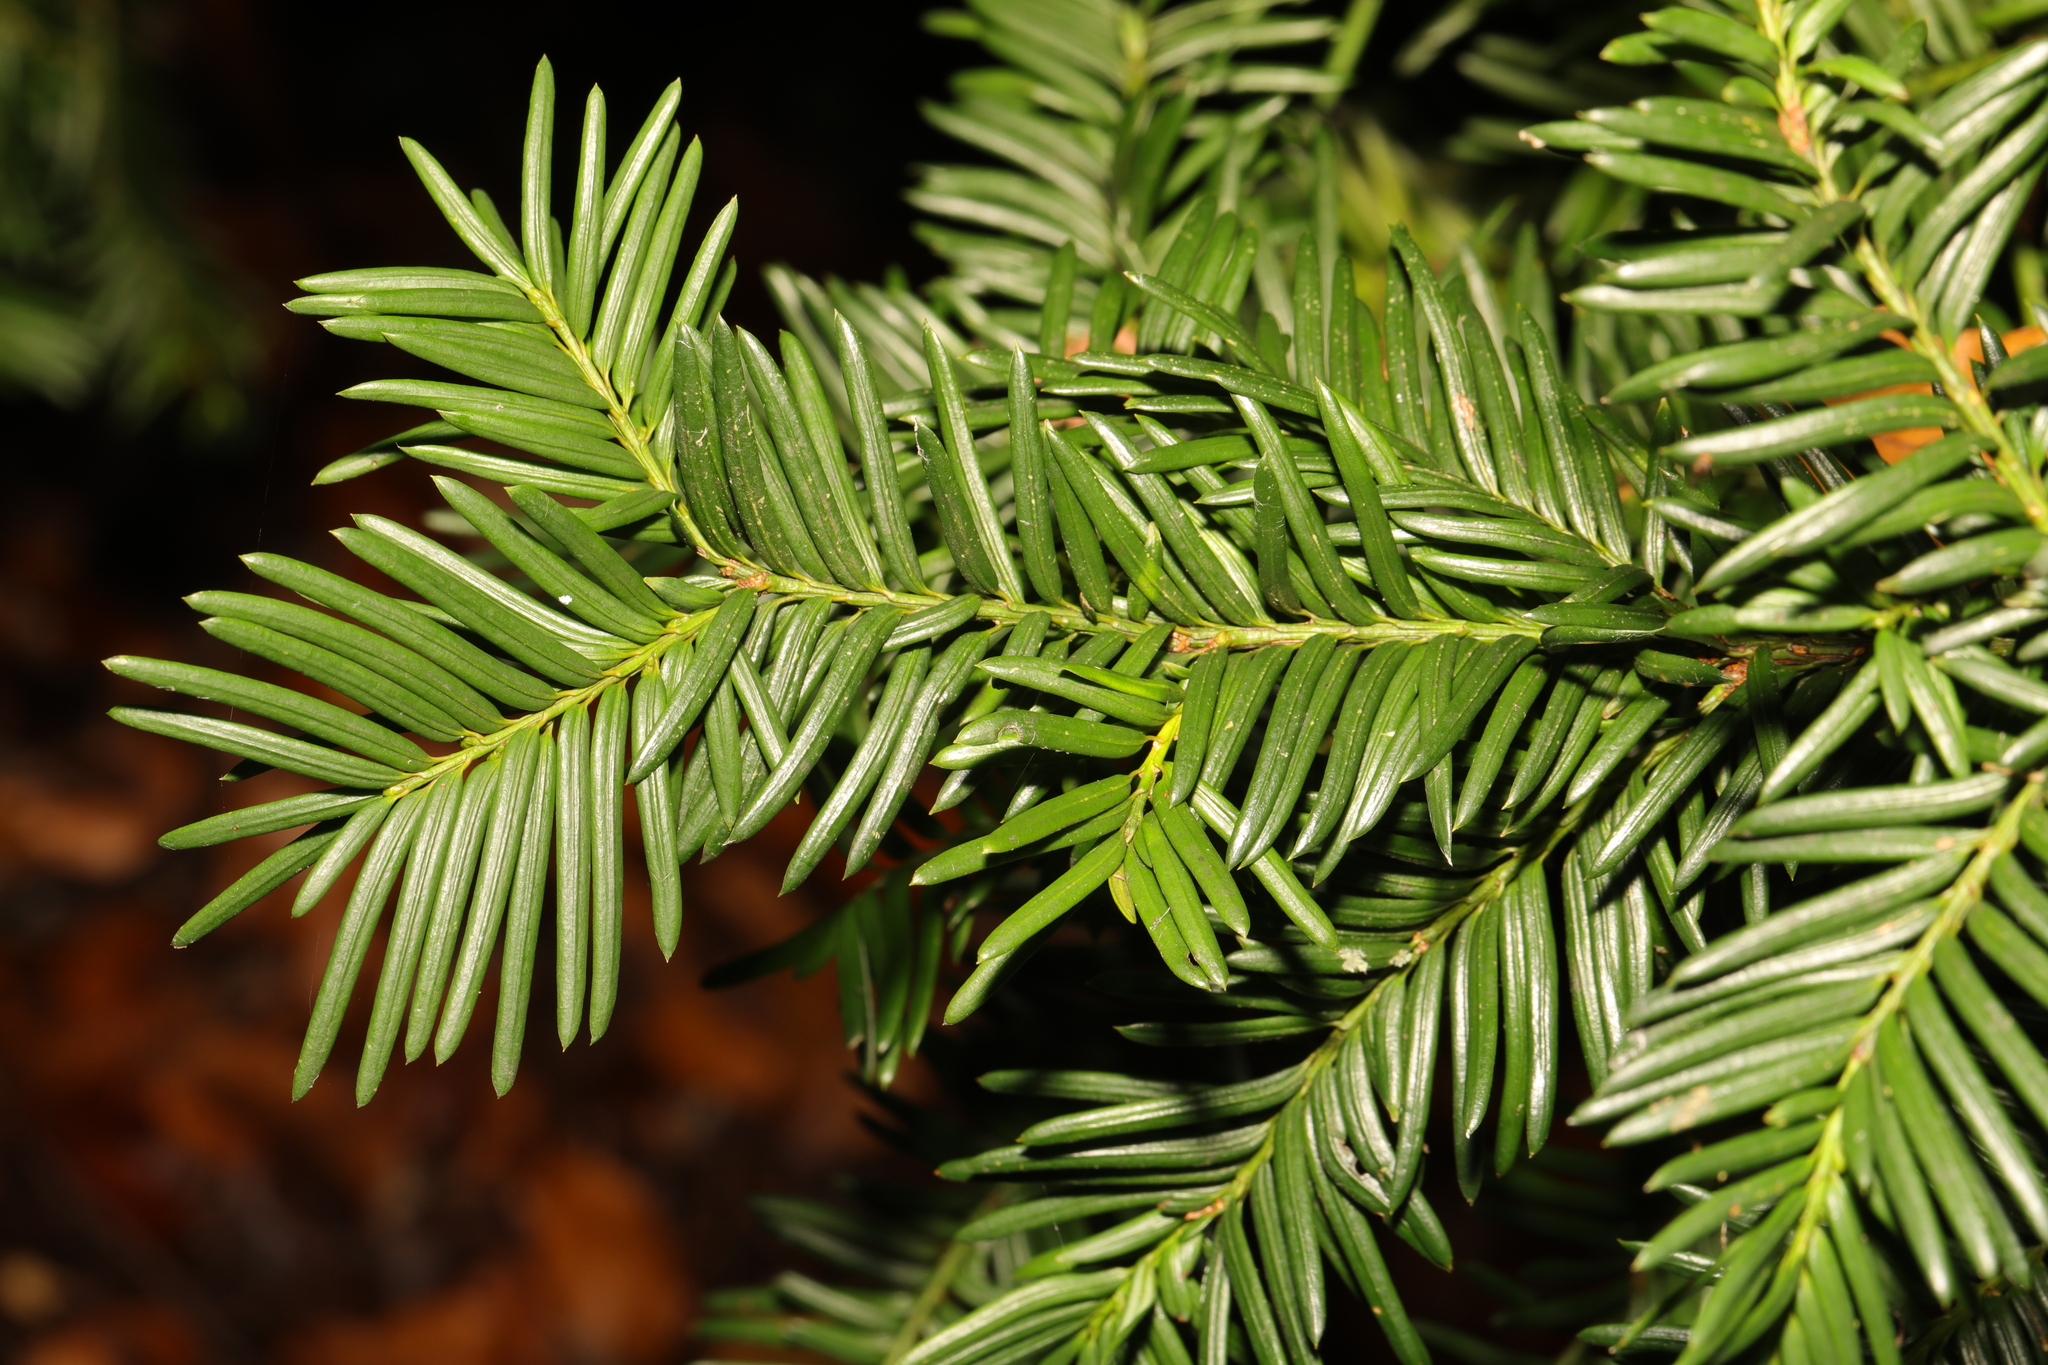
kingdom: Plantae
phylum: Tracheophyta
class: Pinopsida
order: Pinales
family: Taxaceae
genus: Taxus
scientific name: Taxus baccata
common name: Yew
